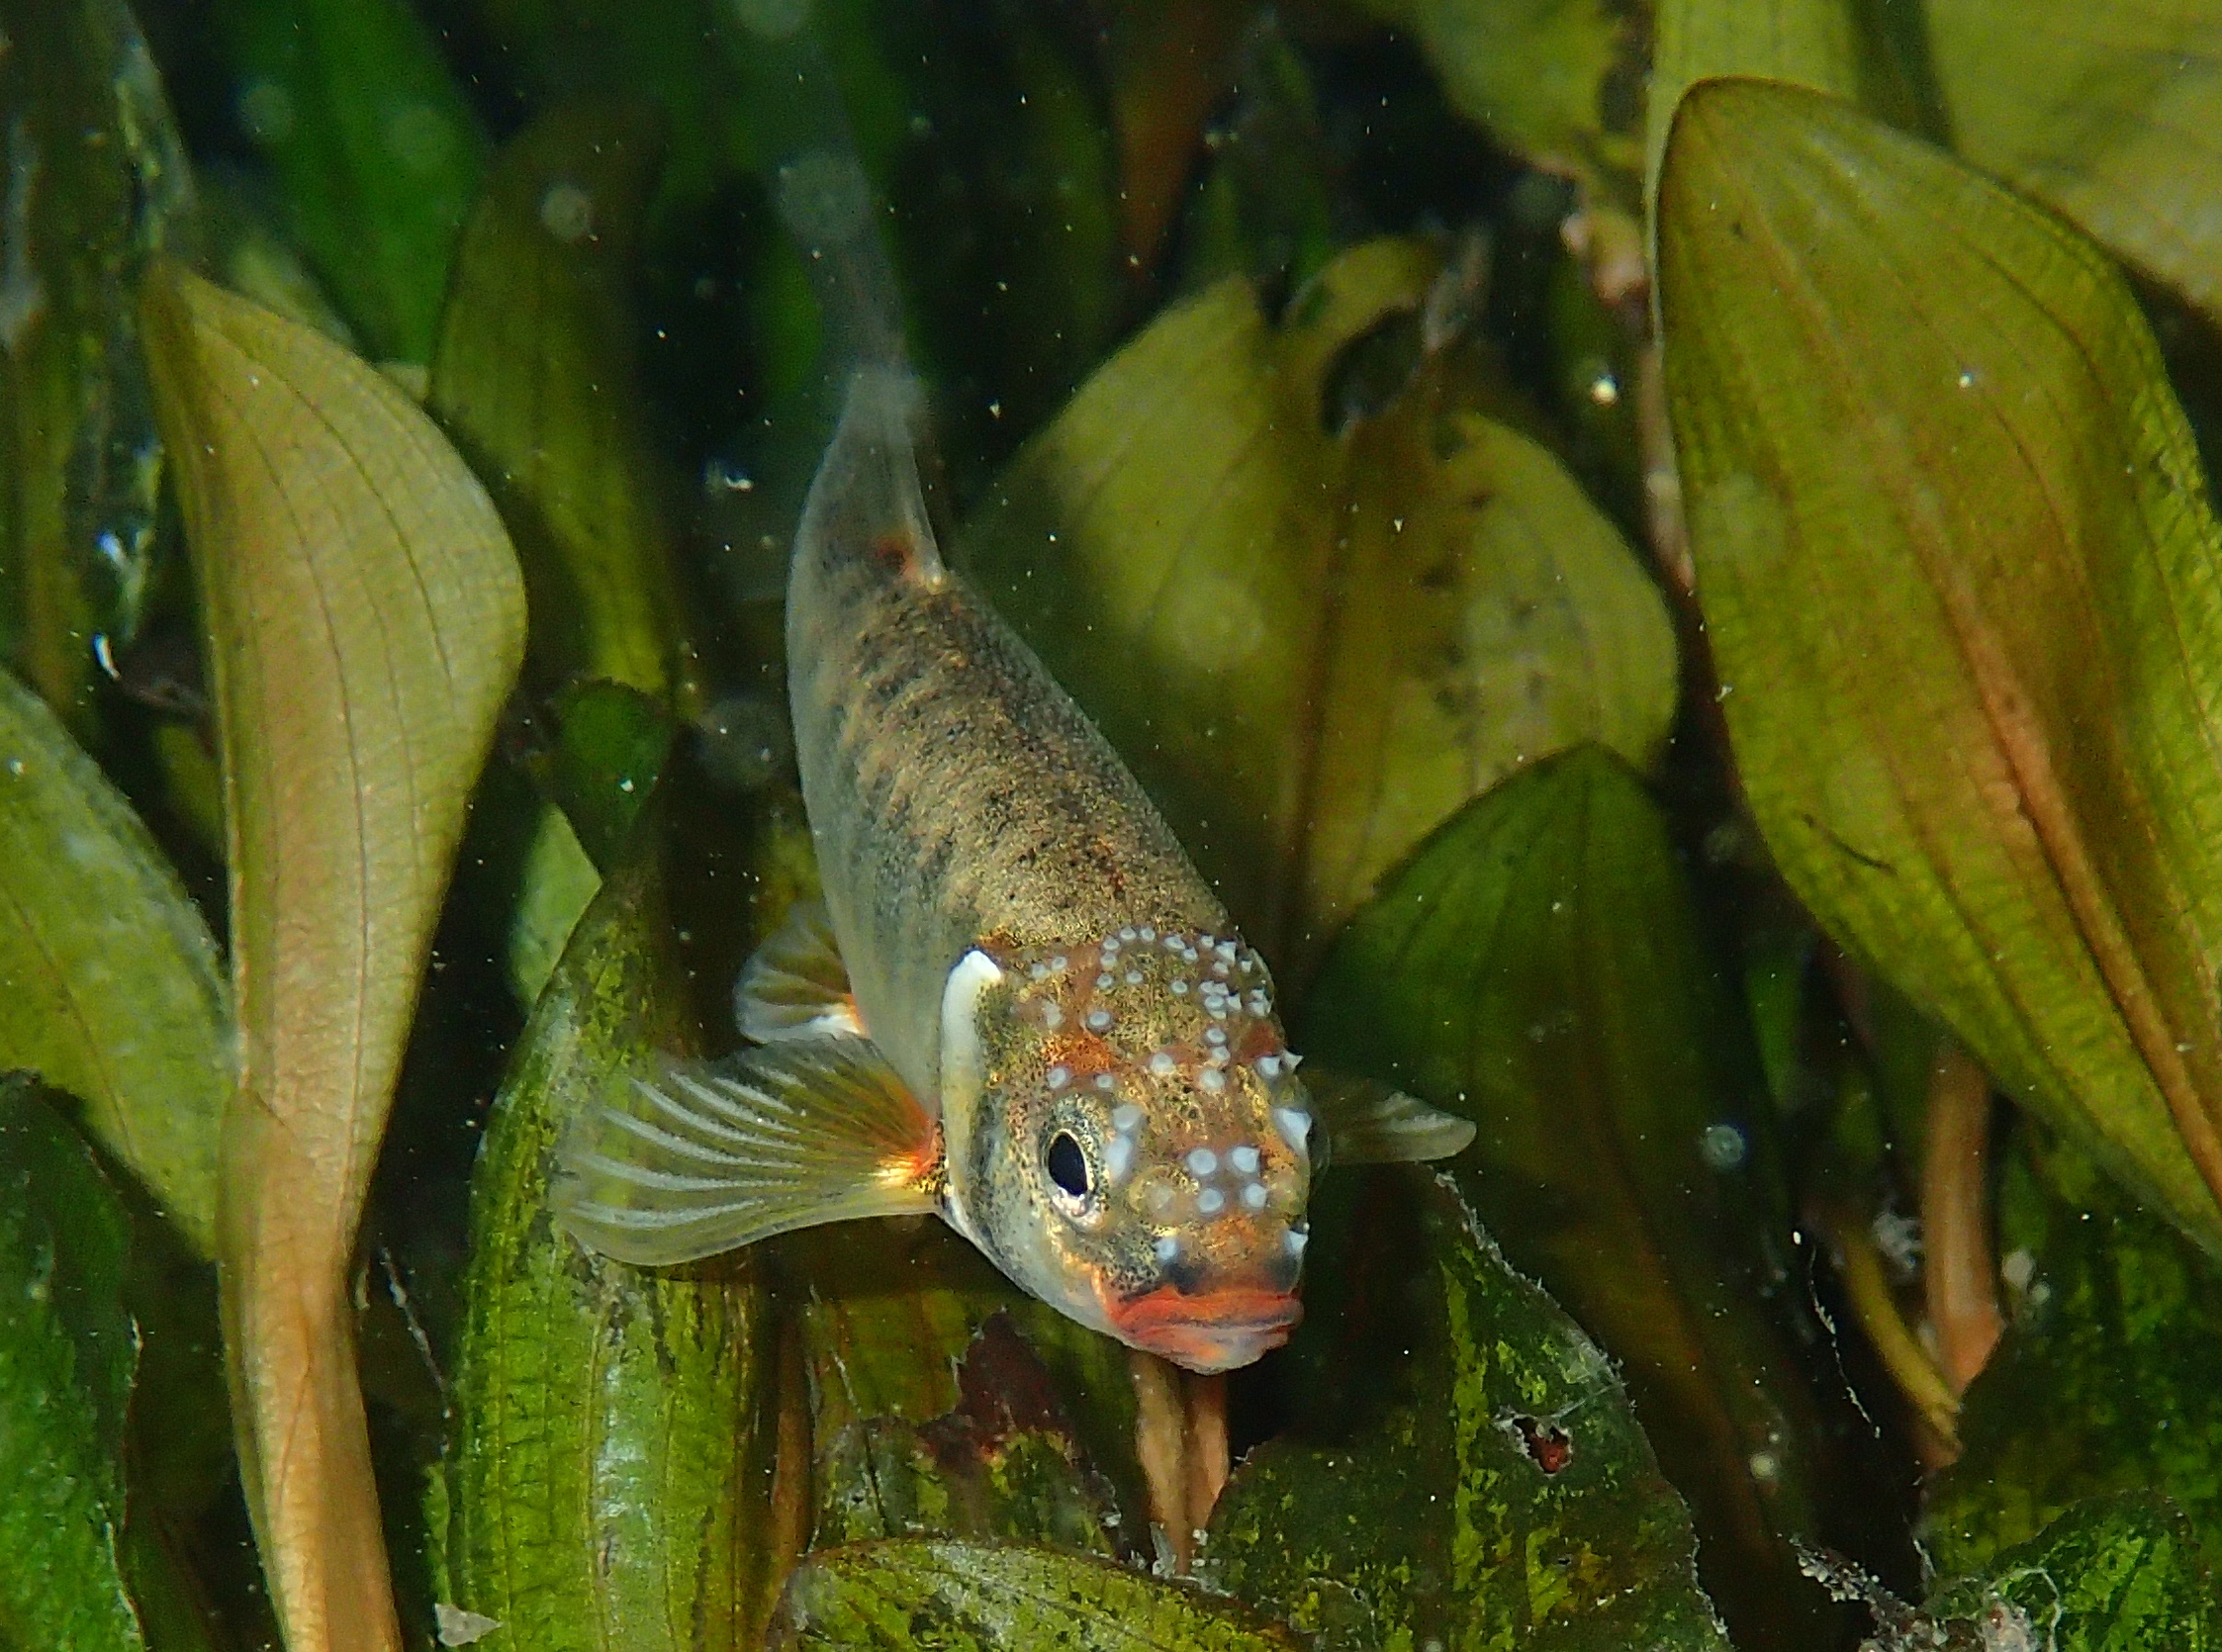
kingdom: Animalia
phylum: Chordata
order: Cypriniformes
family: Cyprinidae
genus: Phoxinus
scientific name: Phoxinus septimaniae
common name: Languedoc minnow
